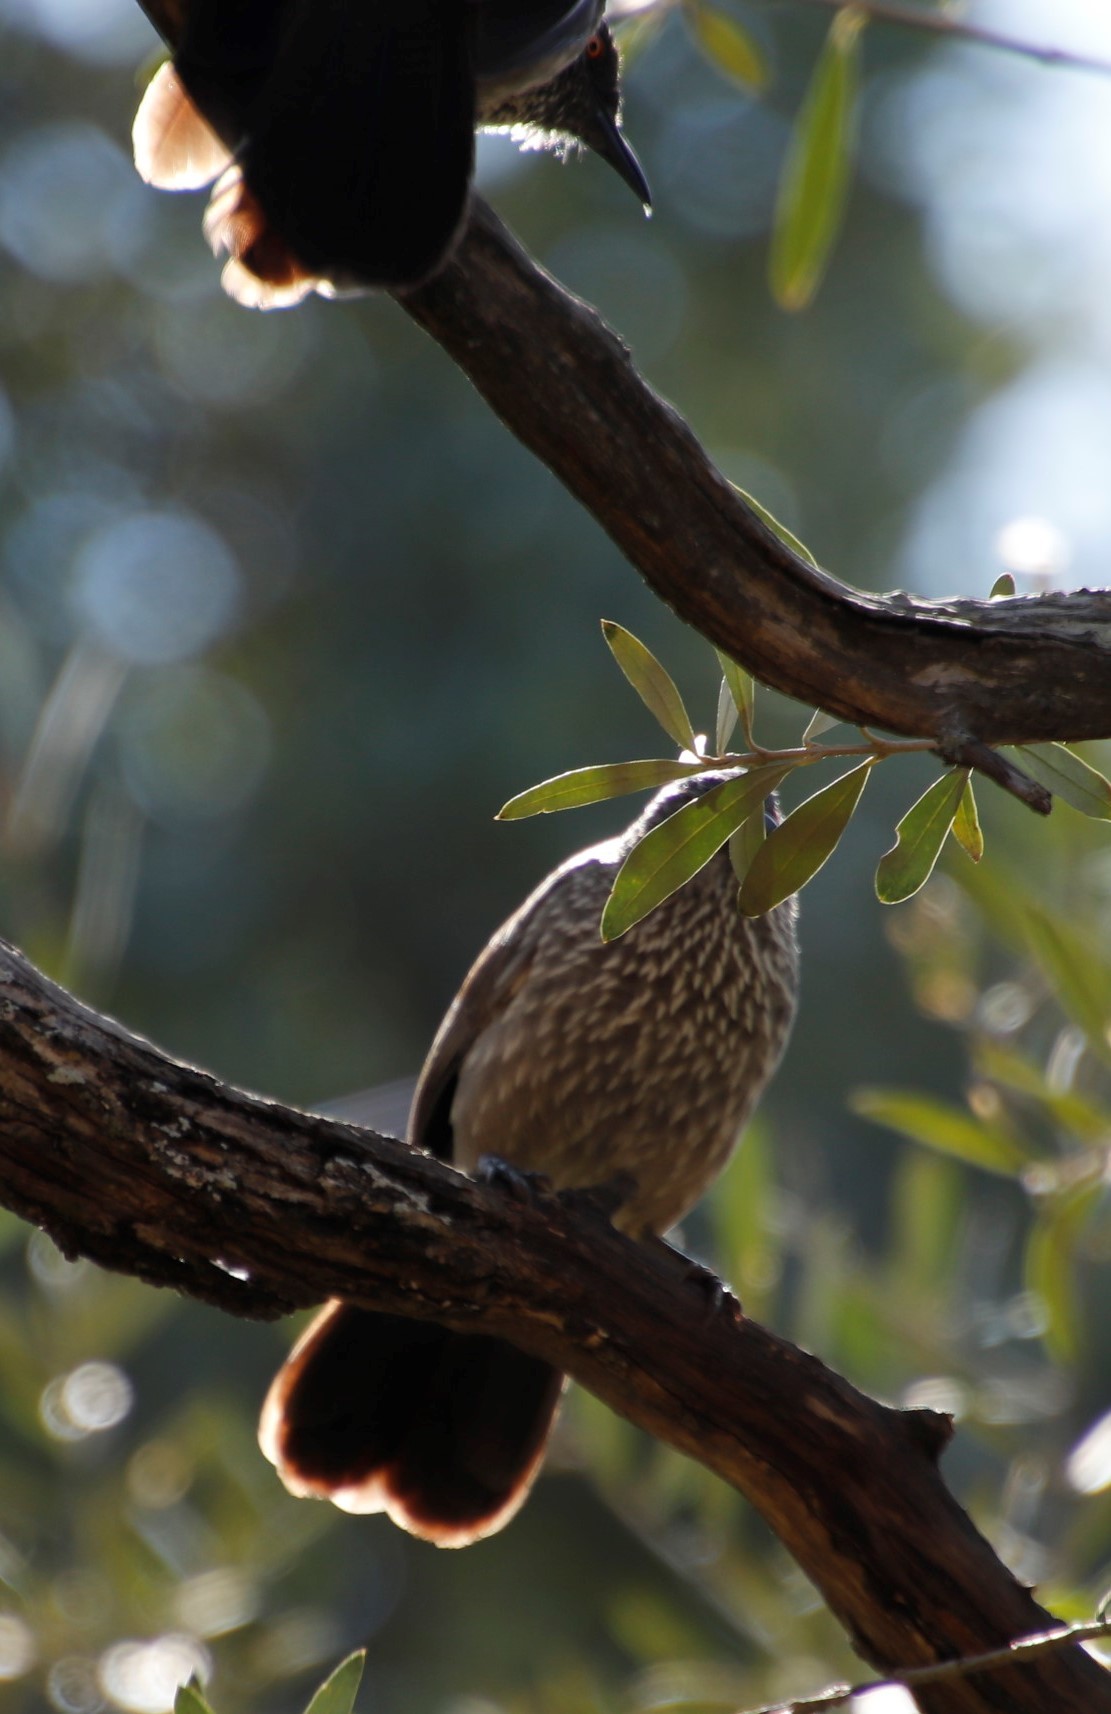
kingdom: Animalia
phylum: Chordata
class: Aves
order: Passeriformes
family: Leiothrichidae
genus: Turdoides
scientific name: Turdoides jardineii
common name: Arrow-marked babbler
